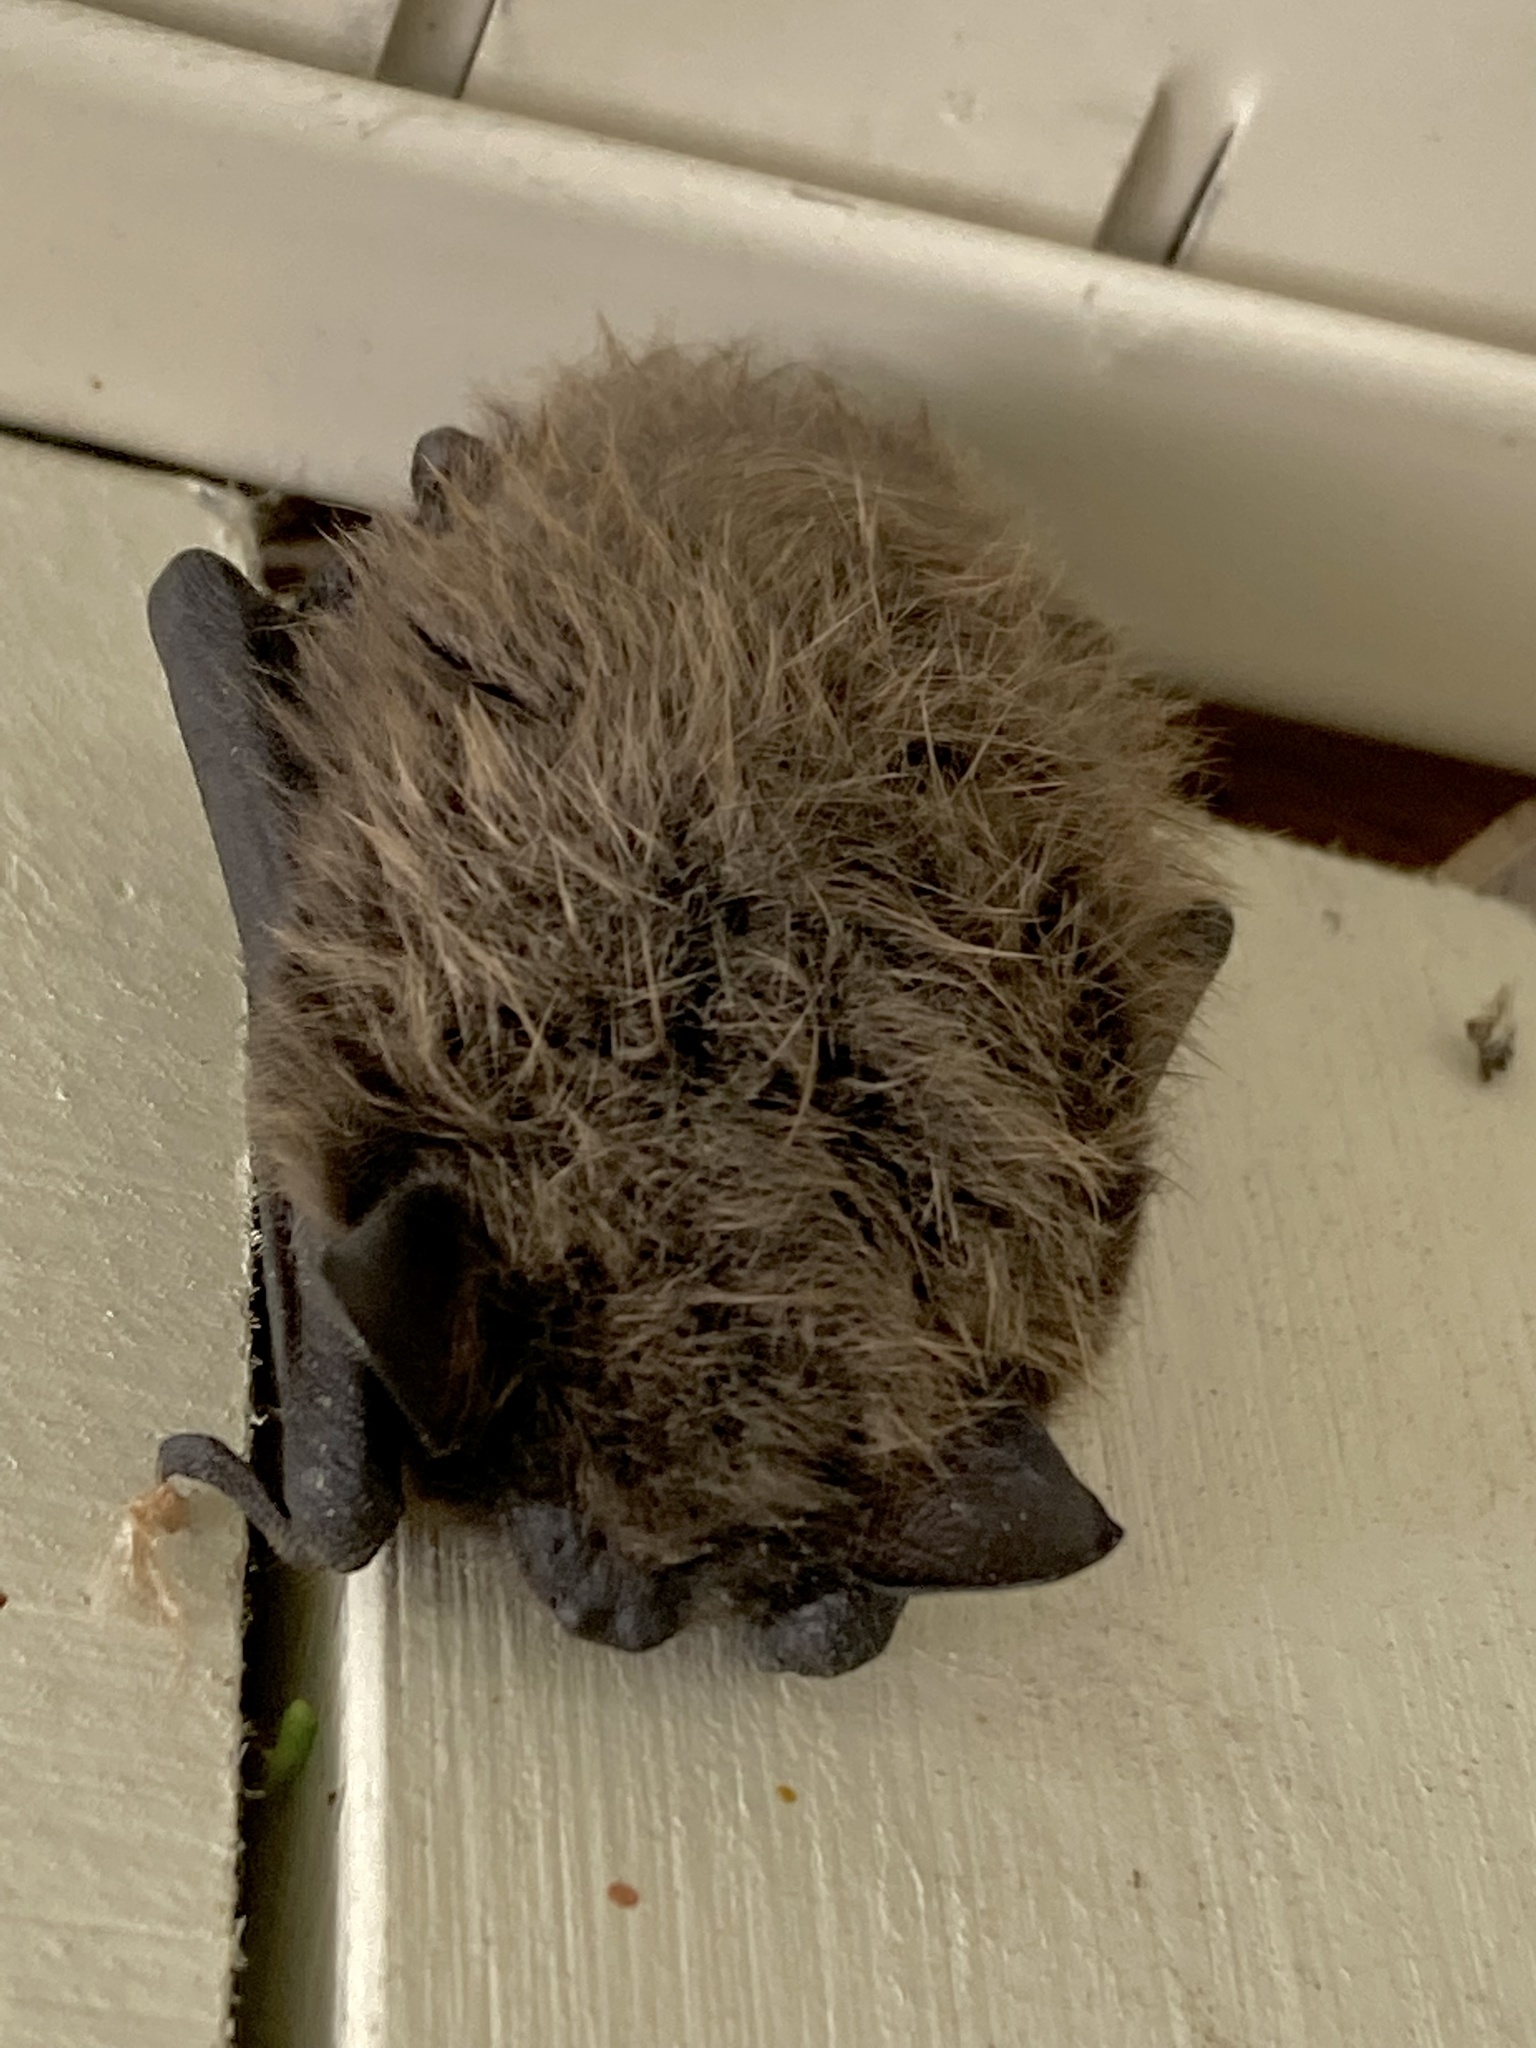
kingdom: Animalia
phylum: Chordata
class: Mammalia
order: Chiroptera
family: Vespertilionidae
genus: Myotis
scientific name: Myotis lucifugus
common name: Little brown bat
